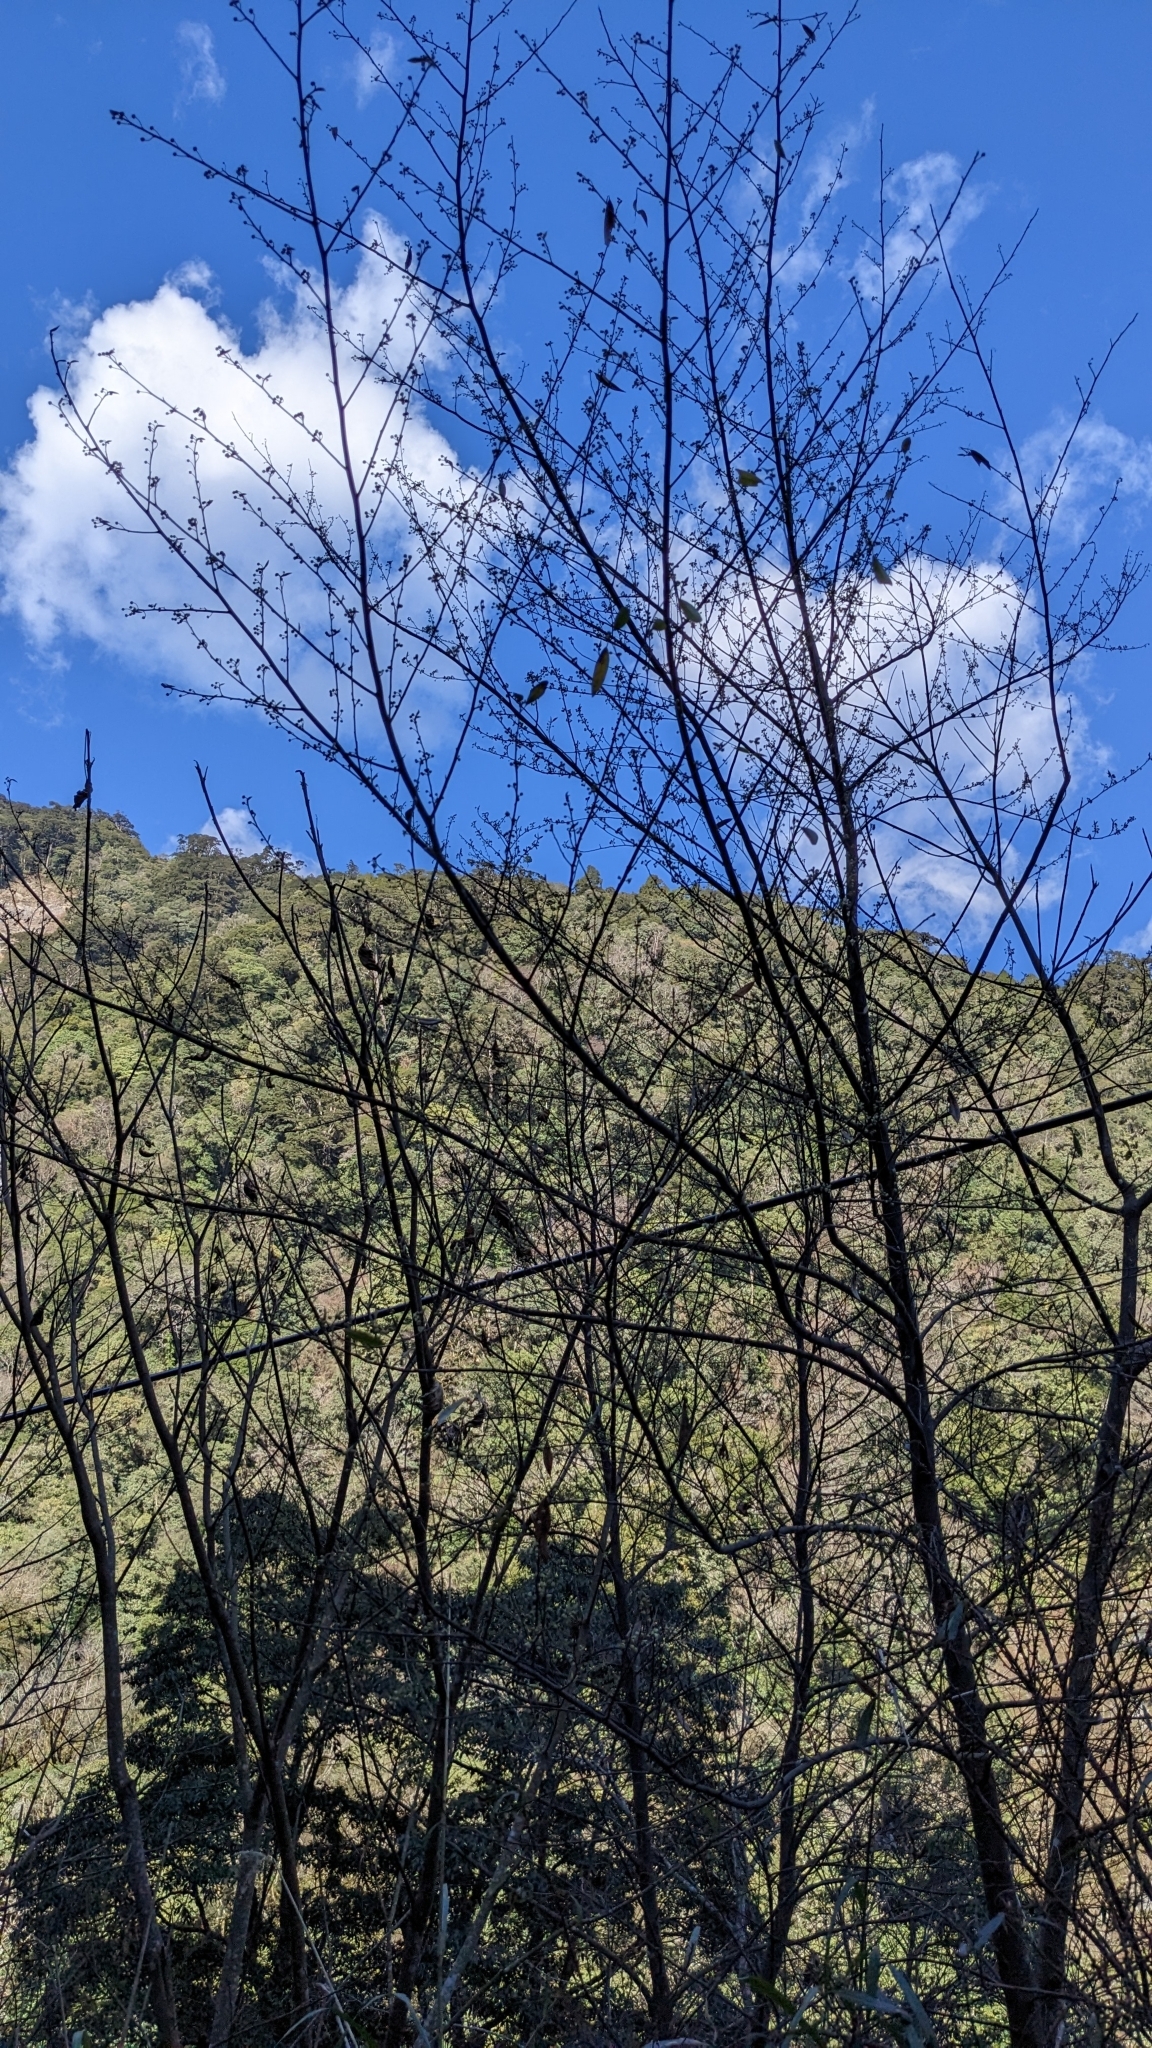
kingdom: Plantae
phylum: Tracheophyta
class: Magnoliopsida
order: Laurales
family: Lauraceae
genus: Litsea
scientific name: Litsea cubeba
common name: Mountain-pepper
